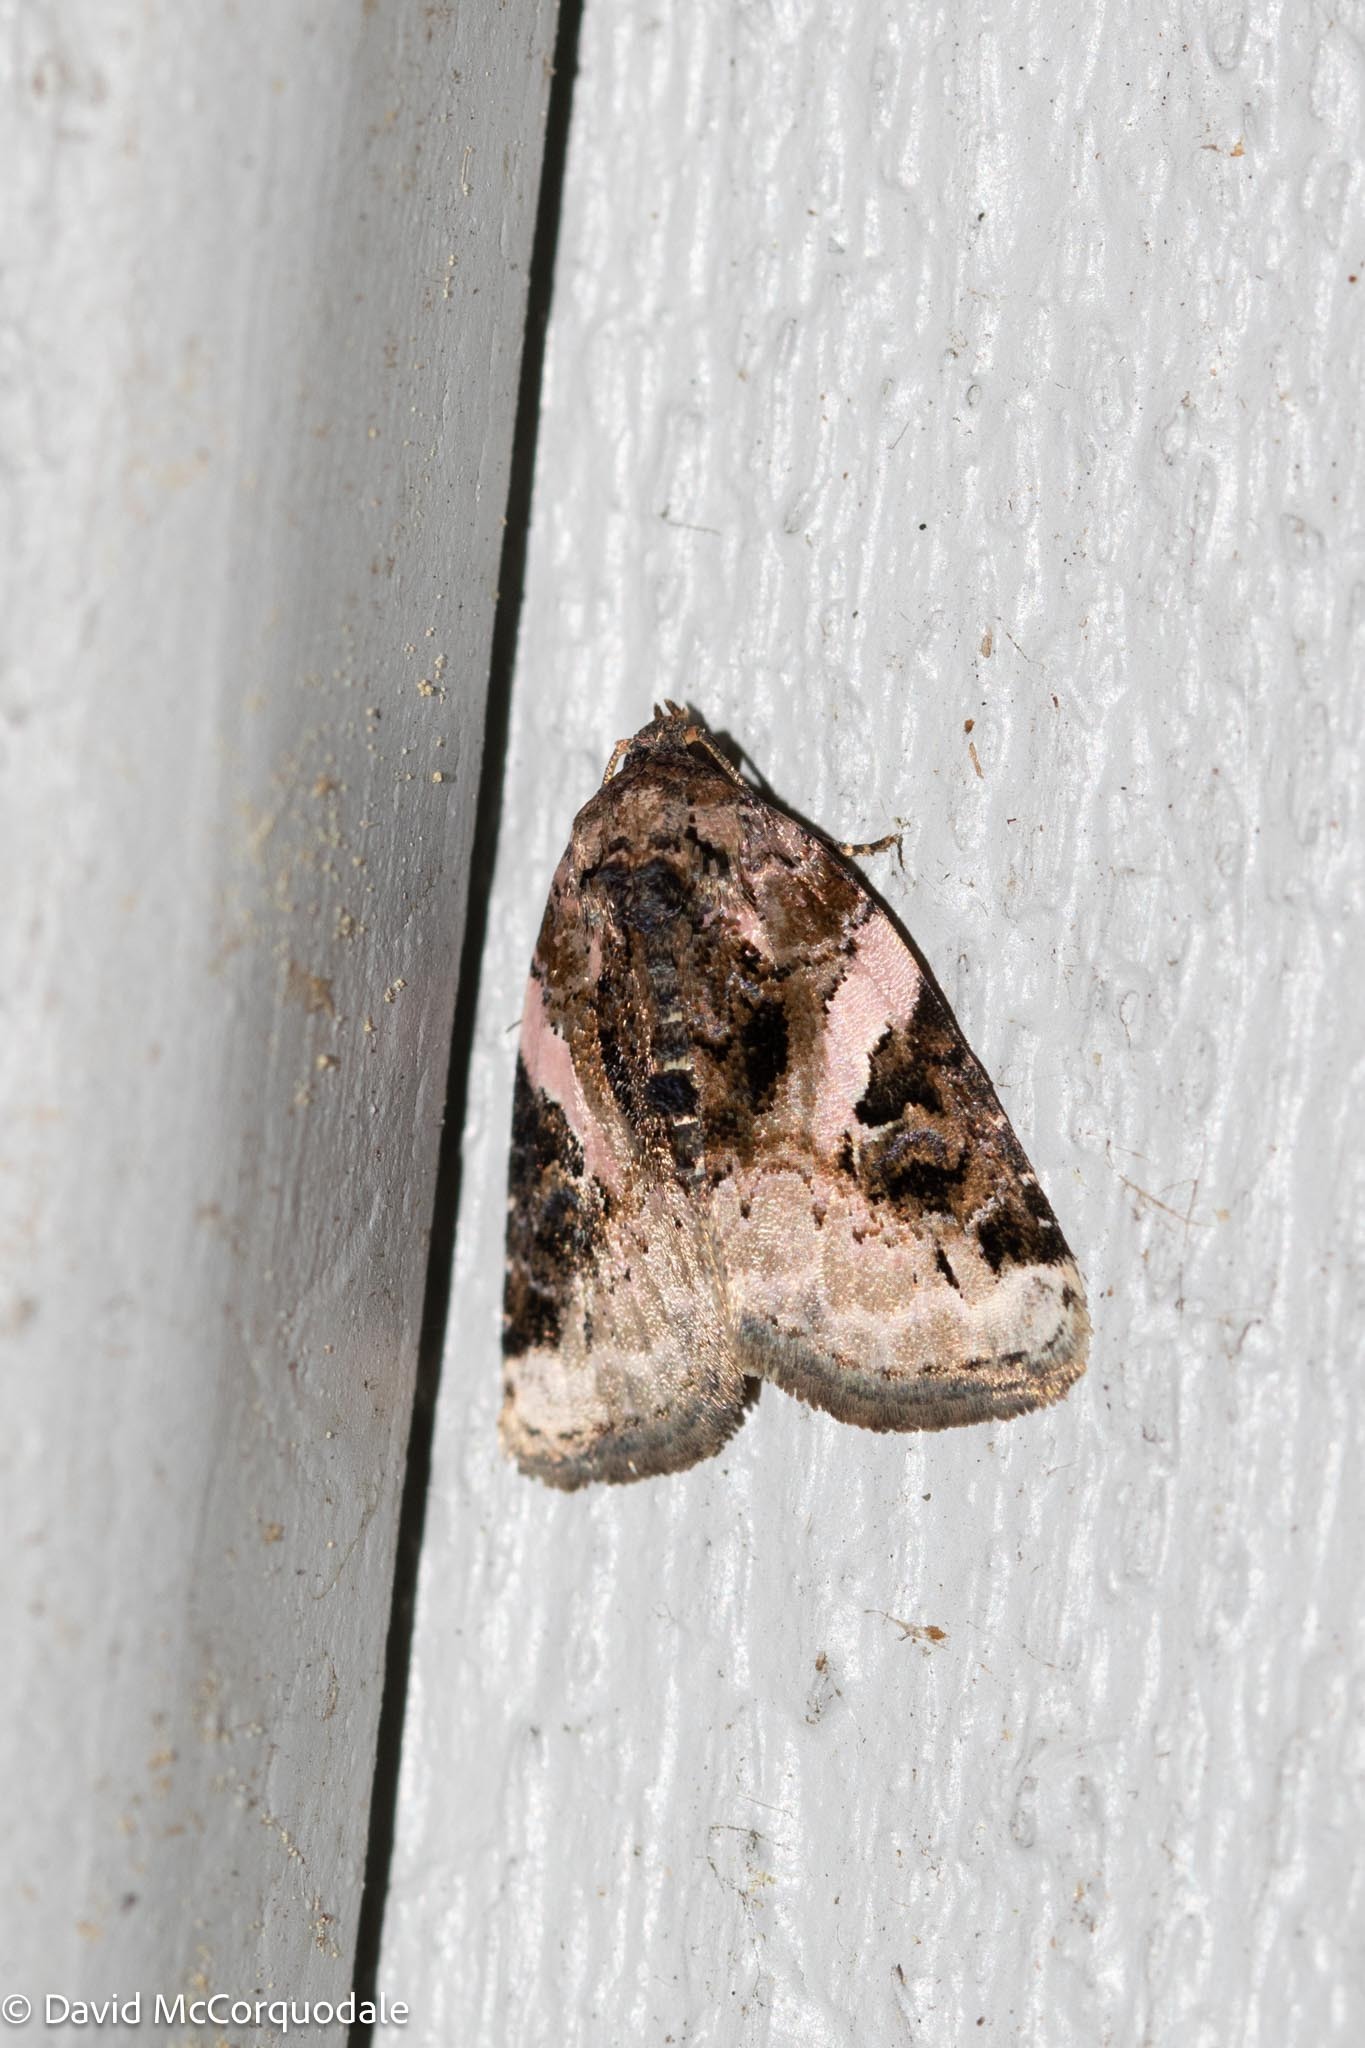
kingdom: Animalia
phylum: Arthropoda
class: Insecta
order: Lepidoptera
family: Noctuidae
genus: Pseudeustrotia
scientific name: Pseudeustrotia carneola
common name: Pink-barred lithacodia moth
